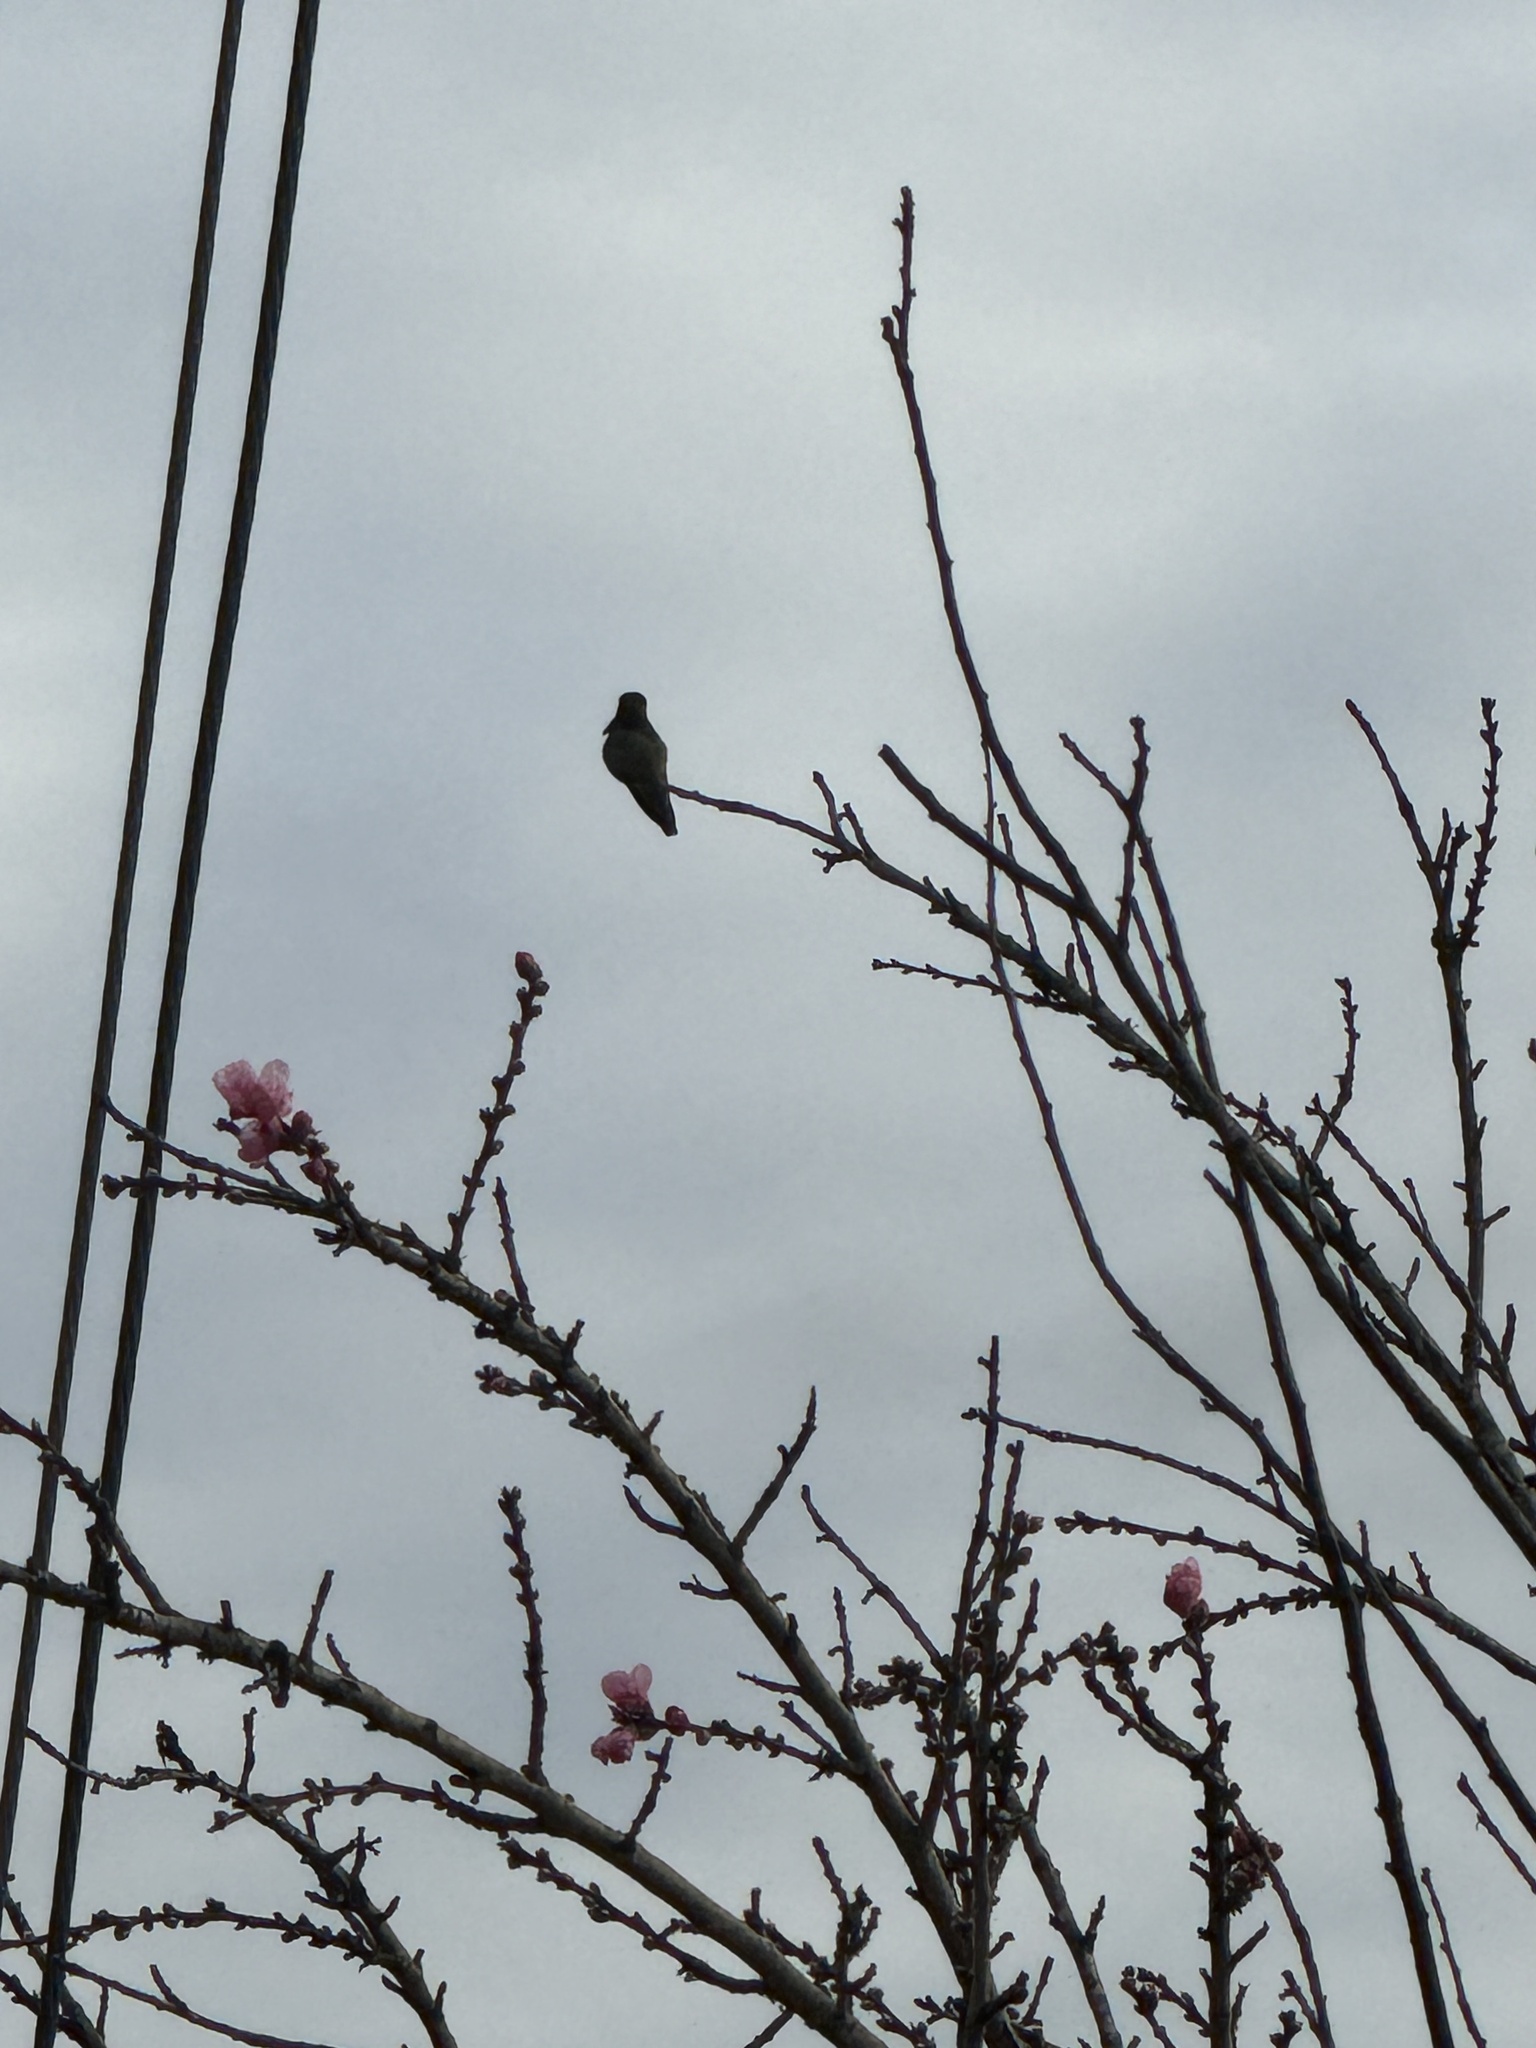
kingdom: Animalia
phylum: Chordata
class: Aves
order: Apodiformes
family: Trochilidae
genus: Calypte
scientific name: Calypte anna
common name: Anna's hummingbird
